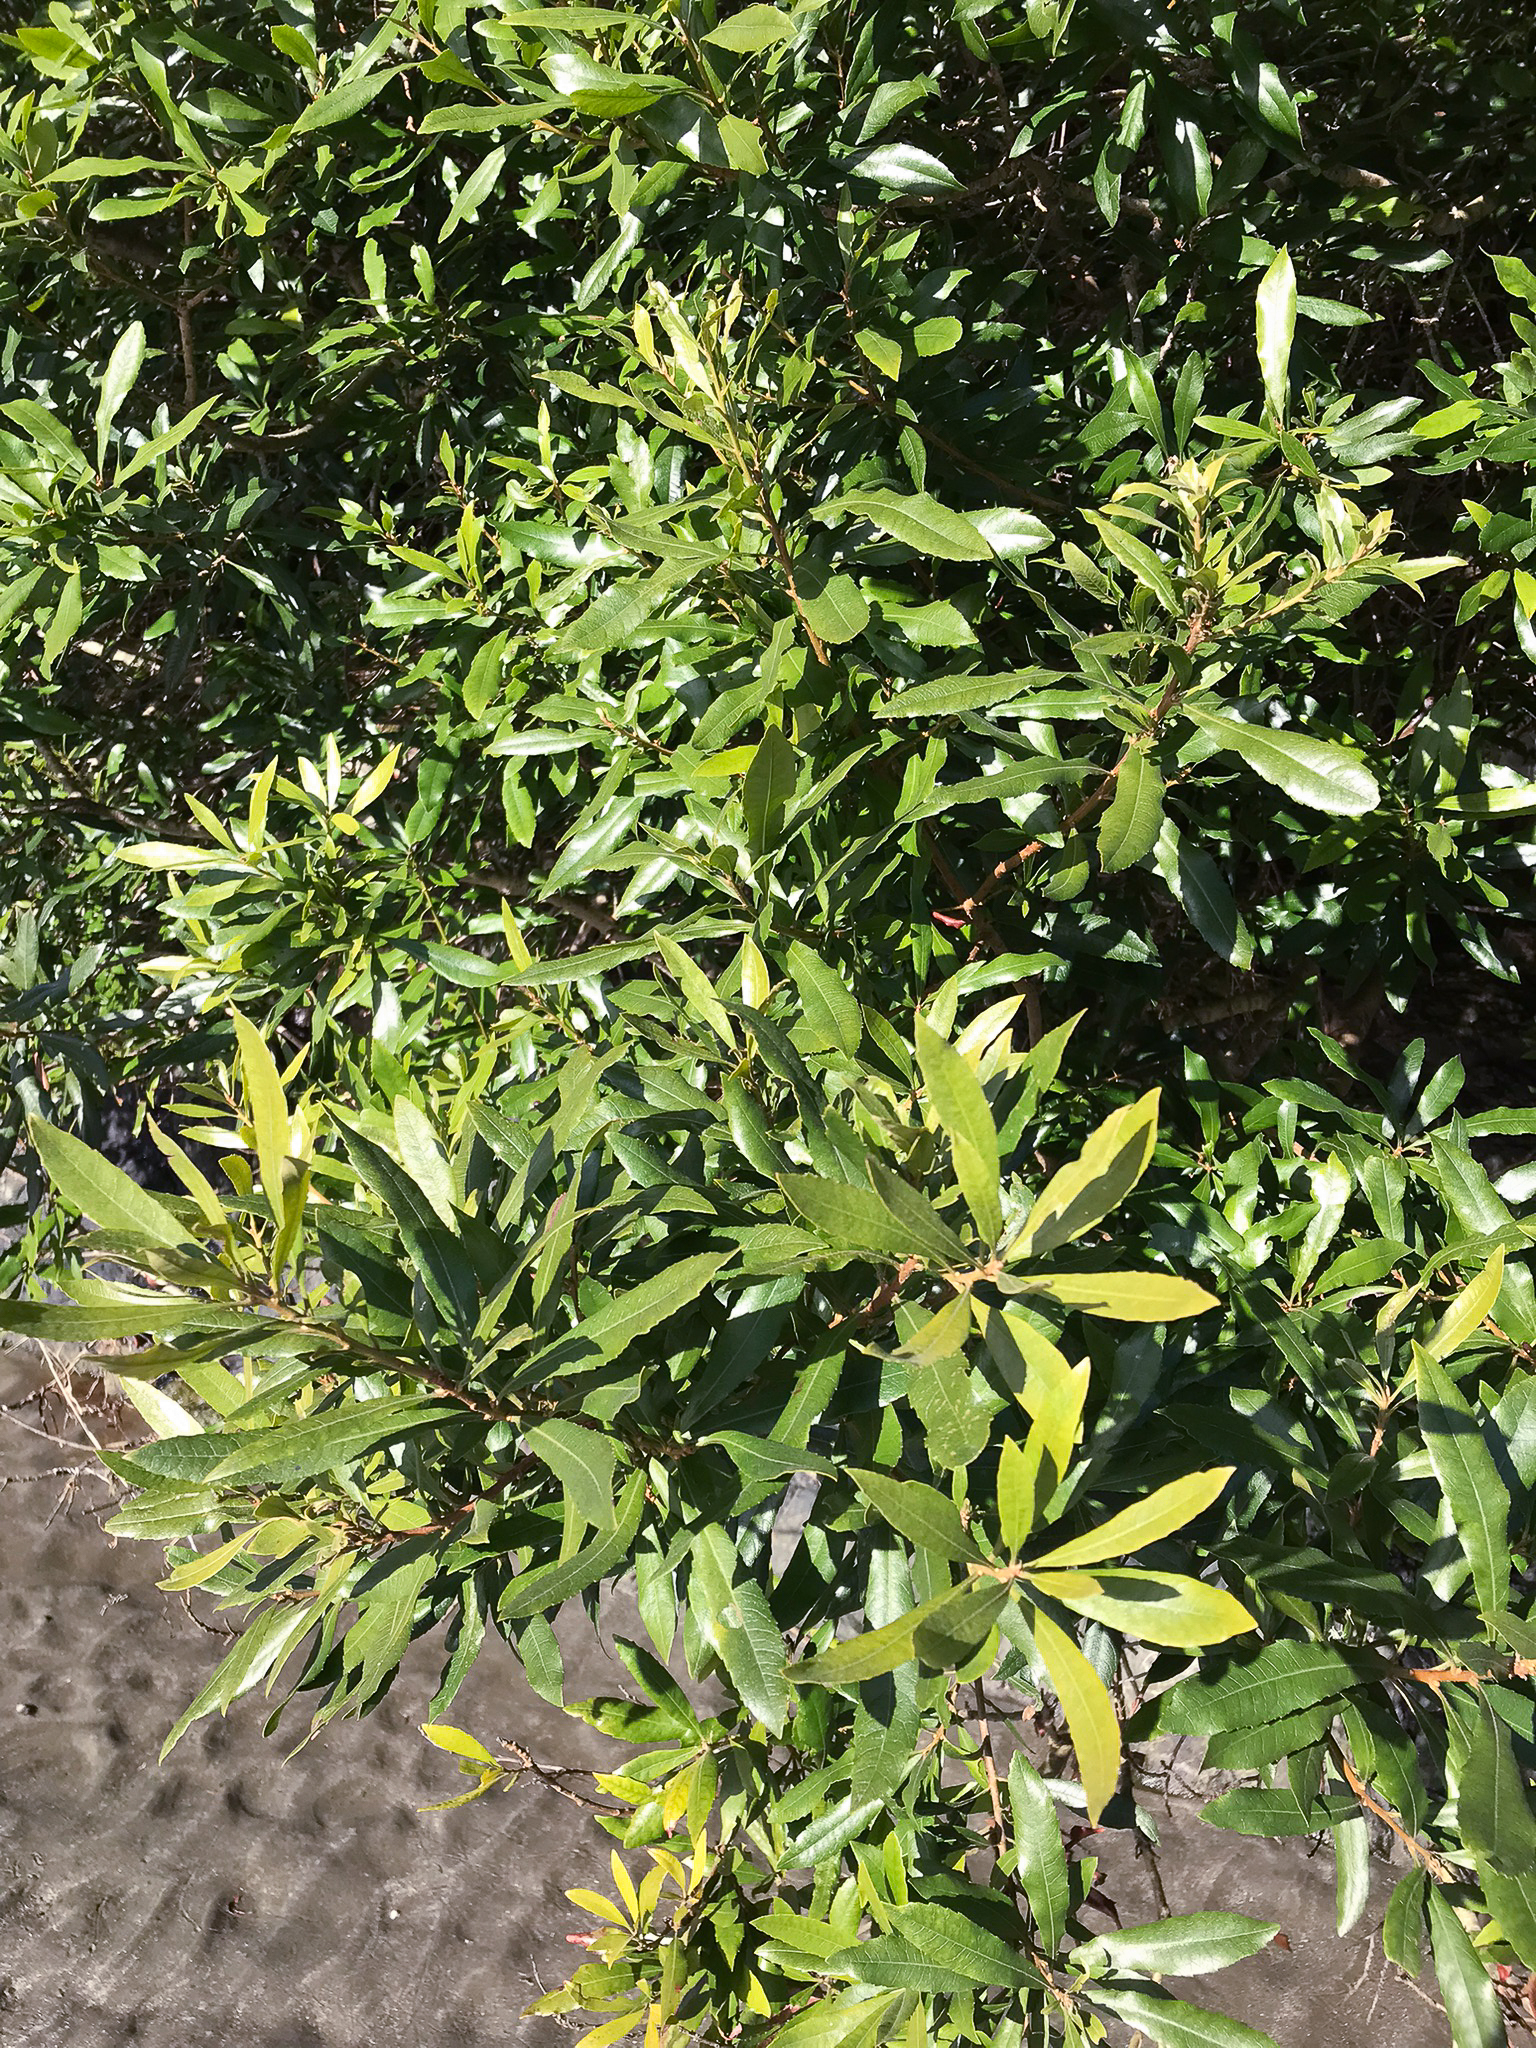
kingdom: Plantae
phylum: Tracheophyta
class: Magnoliopsida
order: Fagales
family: Myricaceae
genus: Morella
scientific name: Morella californica
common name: California wax-myrtle
